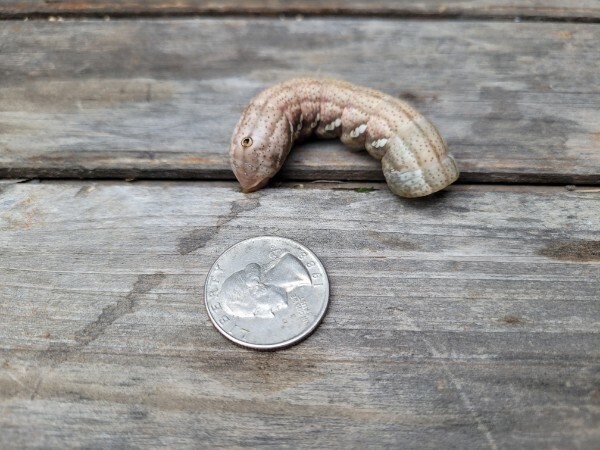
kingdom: Animalia
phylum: Arthropoda
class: Insecta
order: Lepidoptera
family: Sphingidae
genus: Eumorpha
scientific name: Eumorpha achemon
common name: Achemon sphinx
